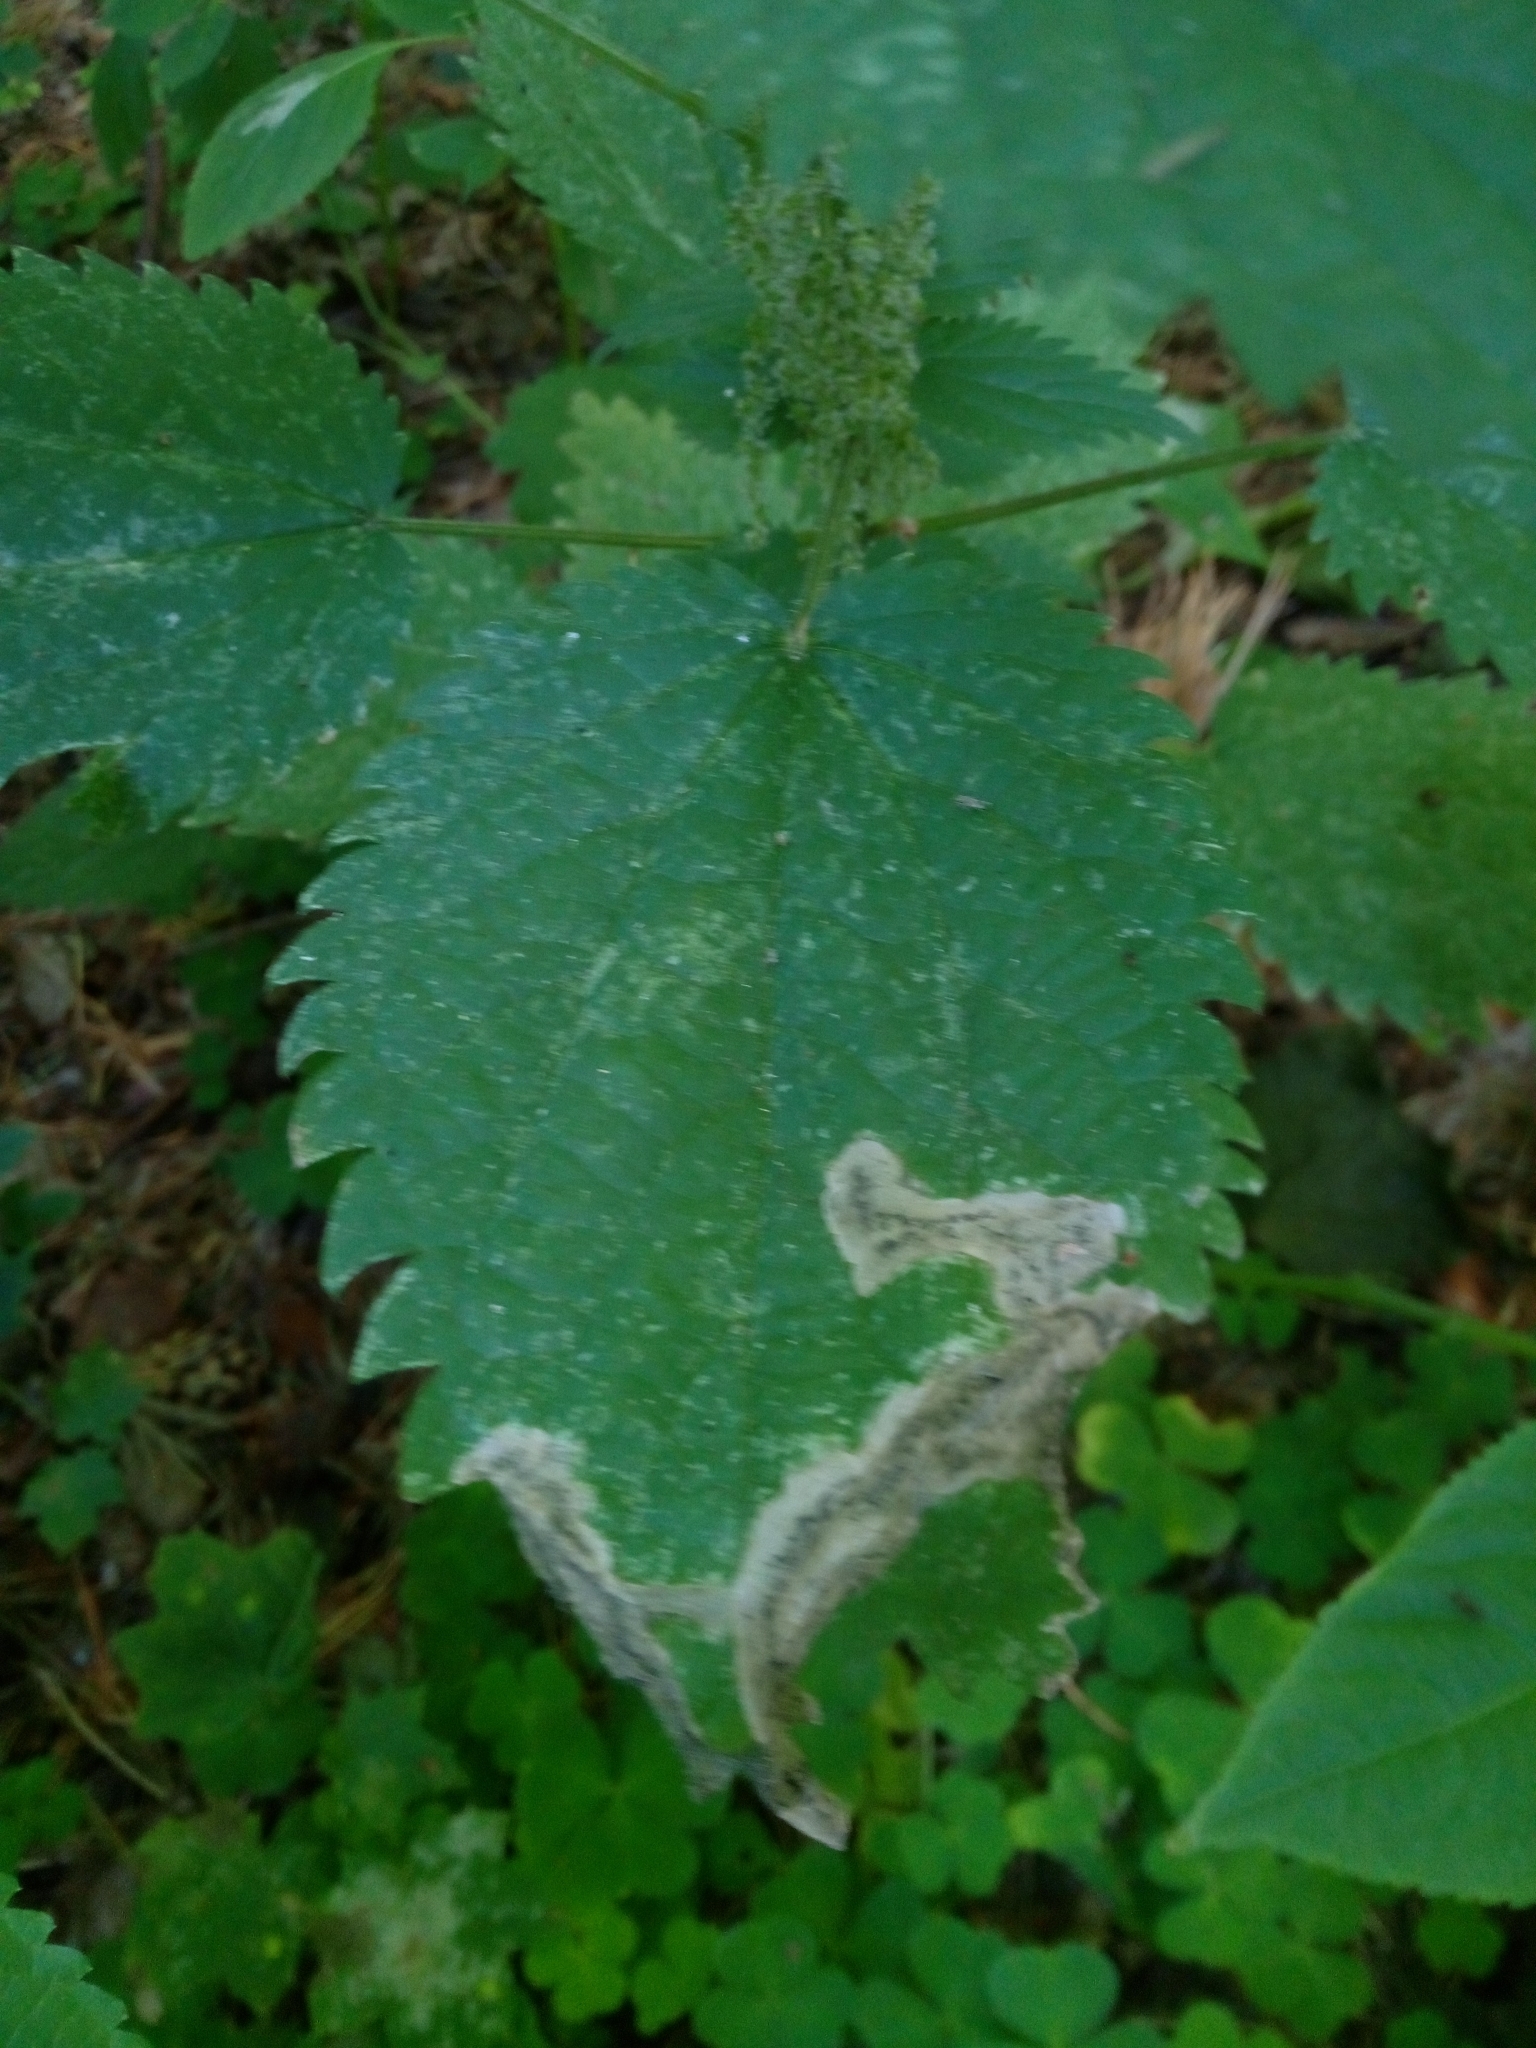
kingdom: Plantae
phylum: Tracheophyta
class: Magnoliopsida
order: Rosales
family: Urticaceae
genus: Urtica
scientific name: Urtica dioica
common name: Common nettle
